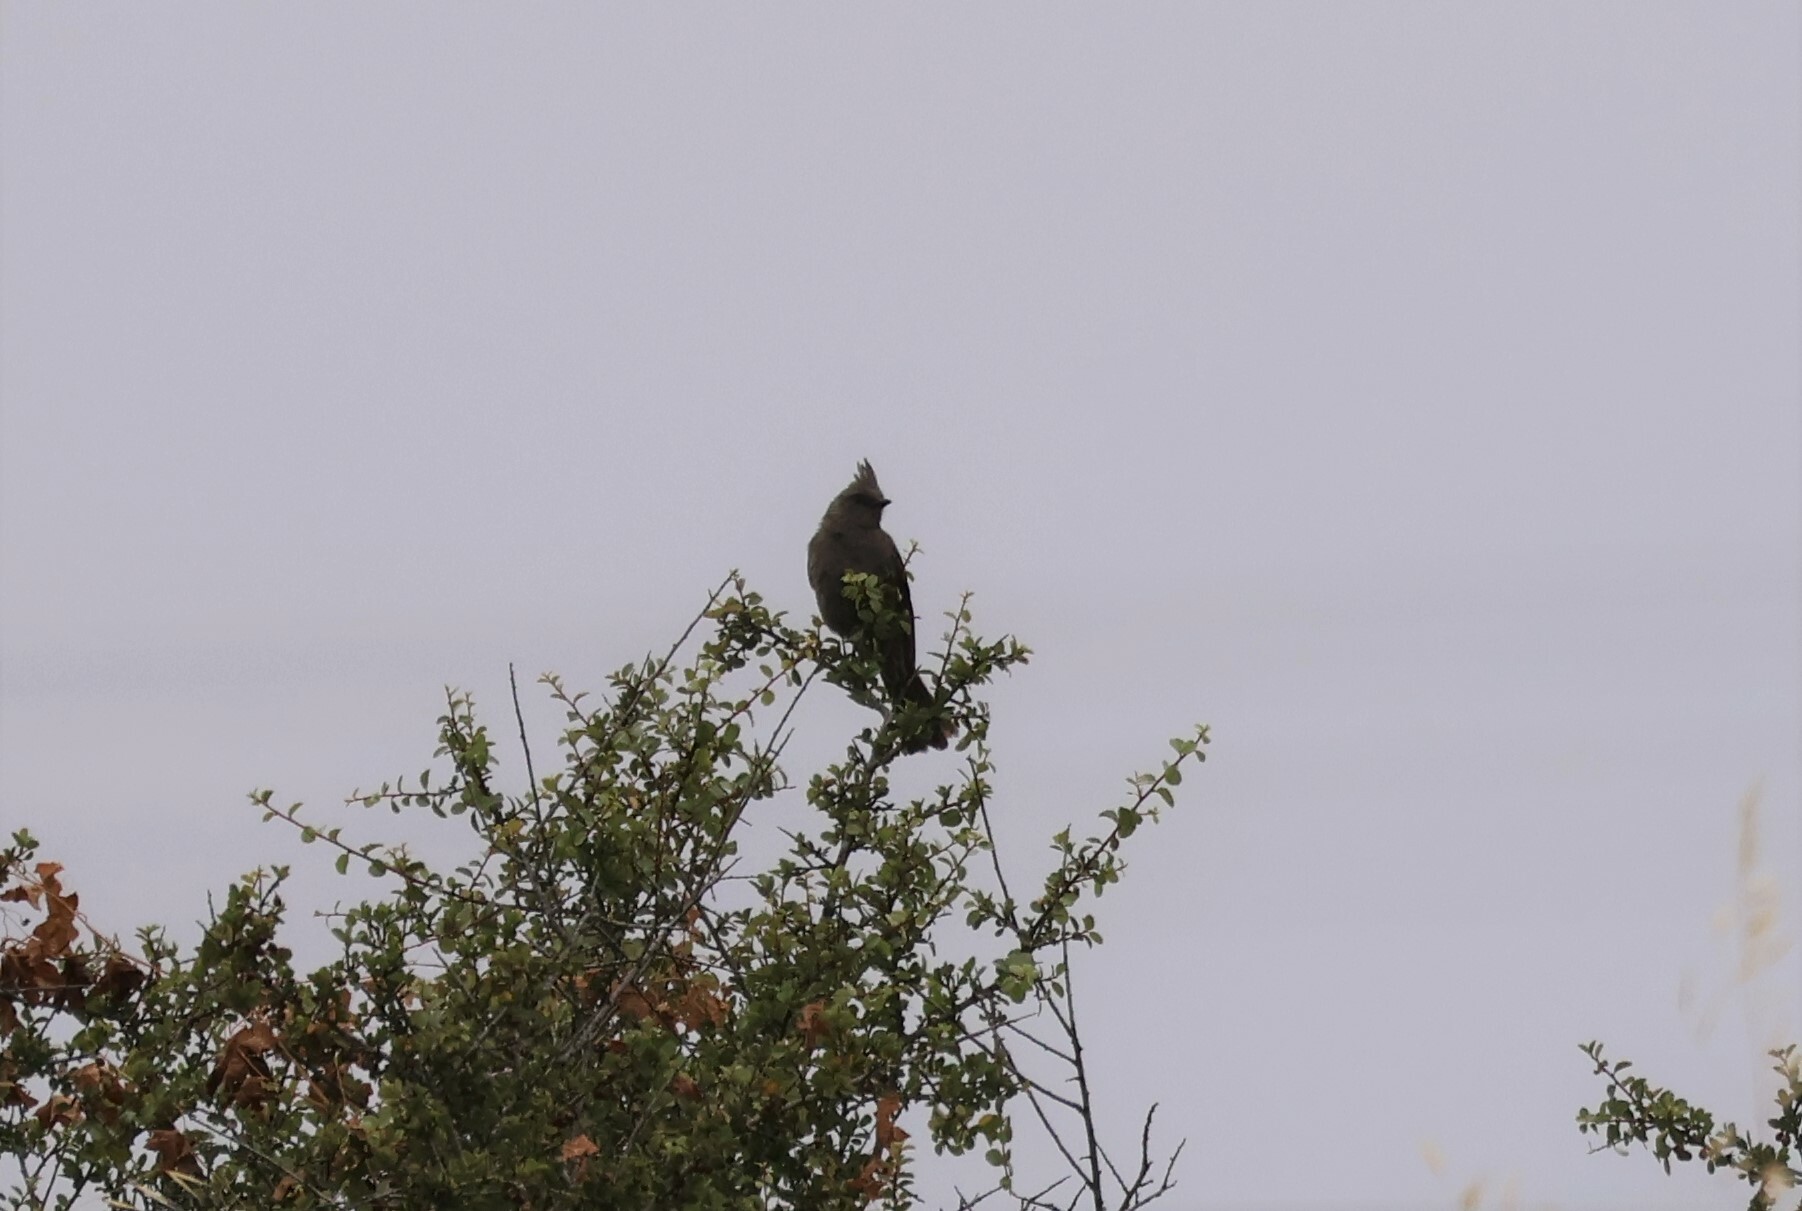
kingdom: Animalia
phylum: Chordata
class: Aves
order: Passeriformes
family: Ptilogonatidae
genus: Phainopepla
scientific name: Phainopepla nitens
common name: Phainopepla
